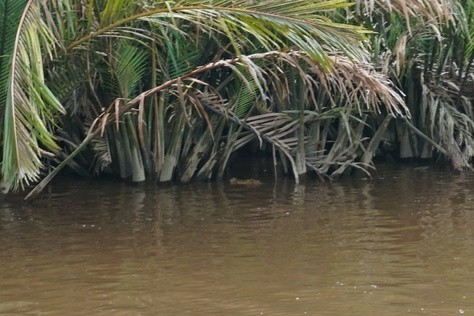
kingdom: Animalia
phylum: Chordata
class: Crocodylia
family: Crocodylidae
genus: Crocodylus
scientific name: Crocodylus porosus
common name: Saltwater crocodile
